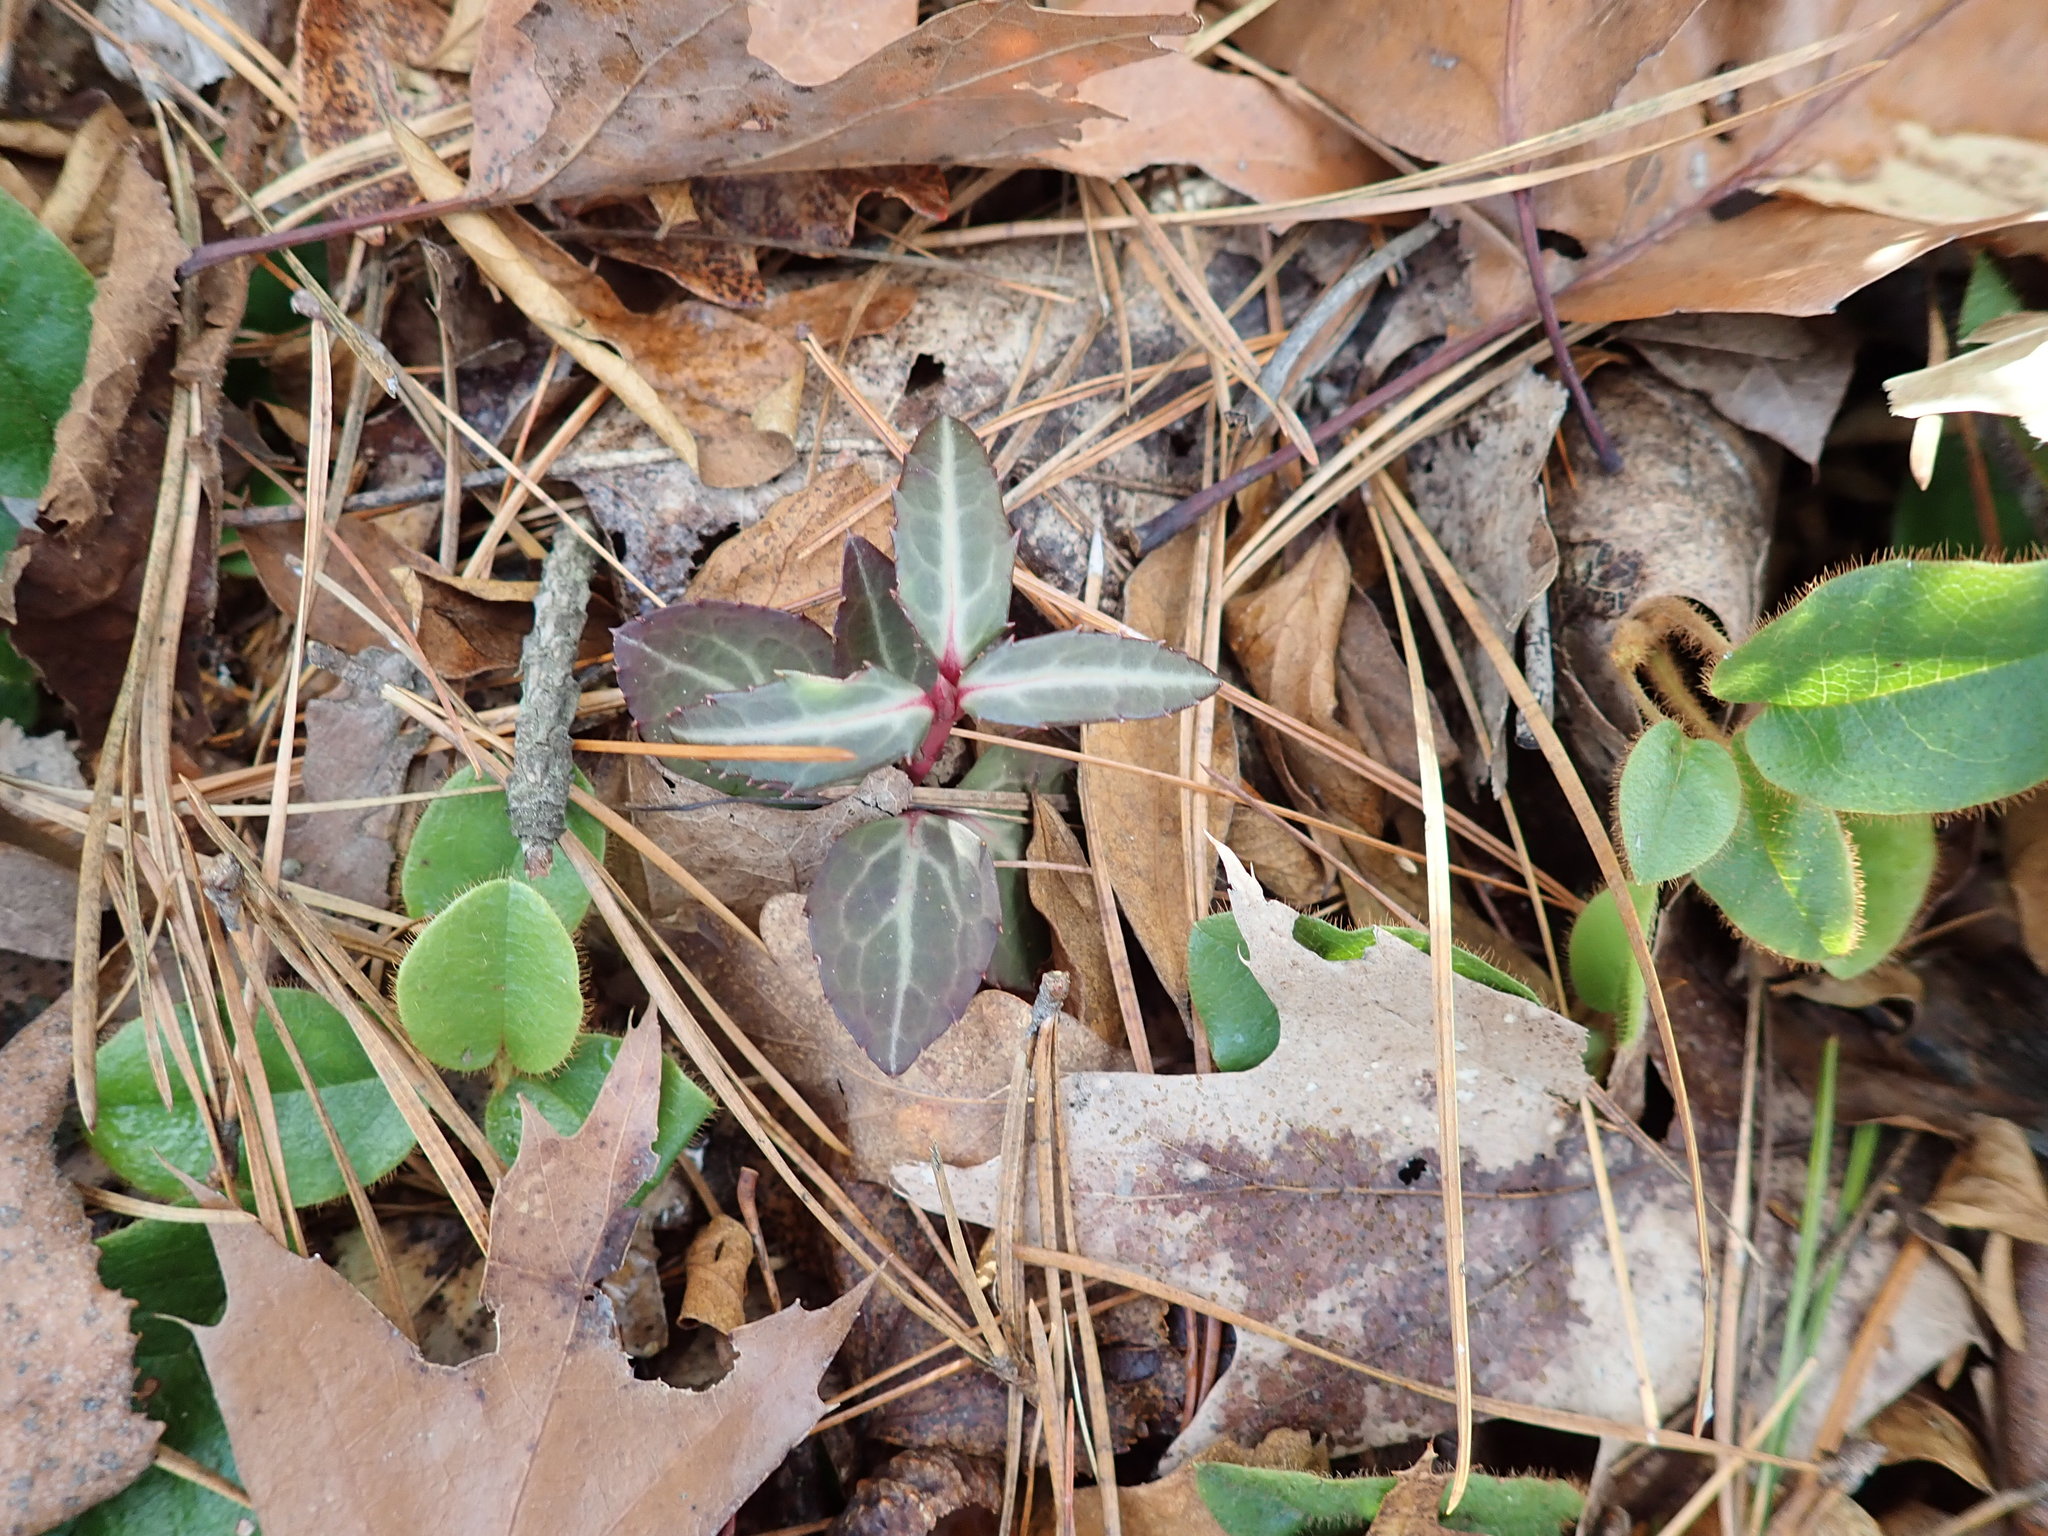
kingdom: Plantae
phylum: Tracheophyta
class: Magnoliopsida
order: Ericales
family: Ericaceae
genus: Chimaphila
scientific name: Chimaphila maculata
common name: Spotted pipsissewa
